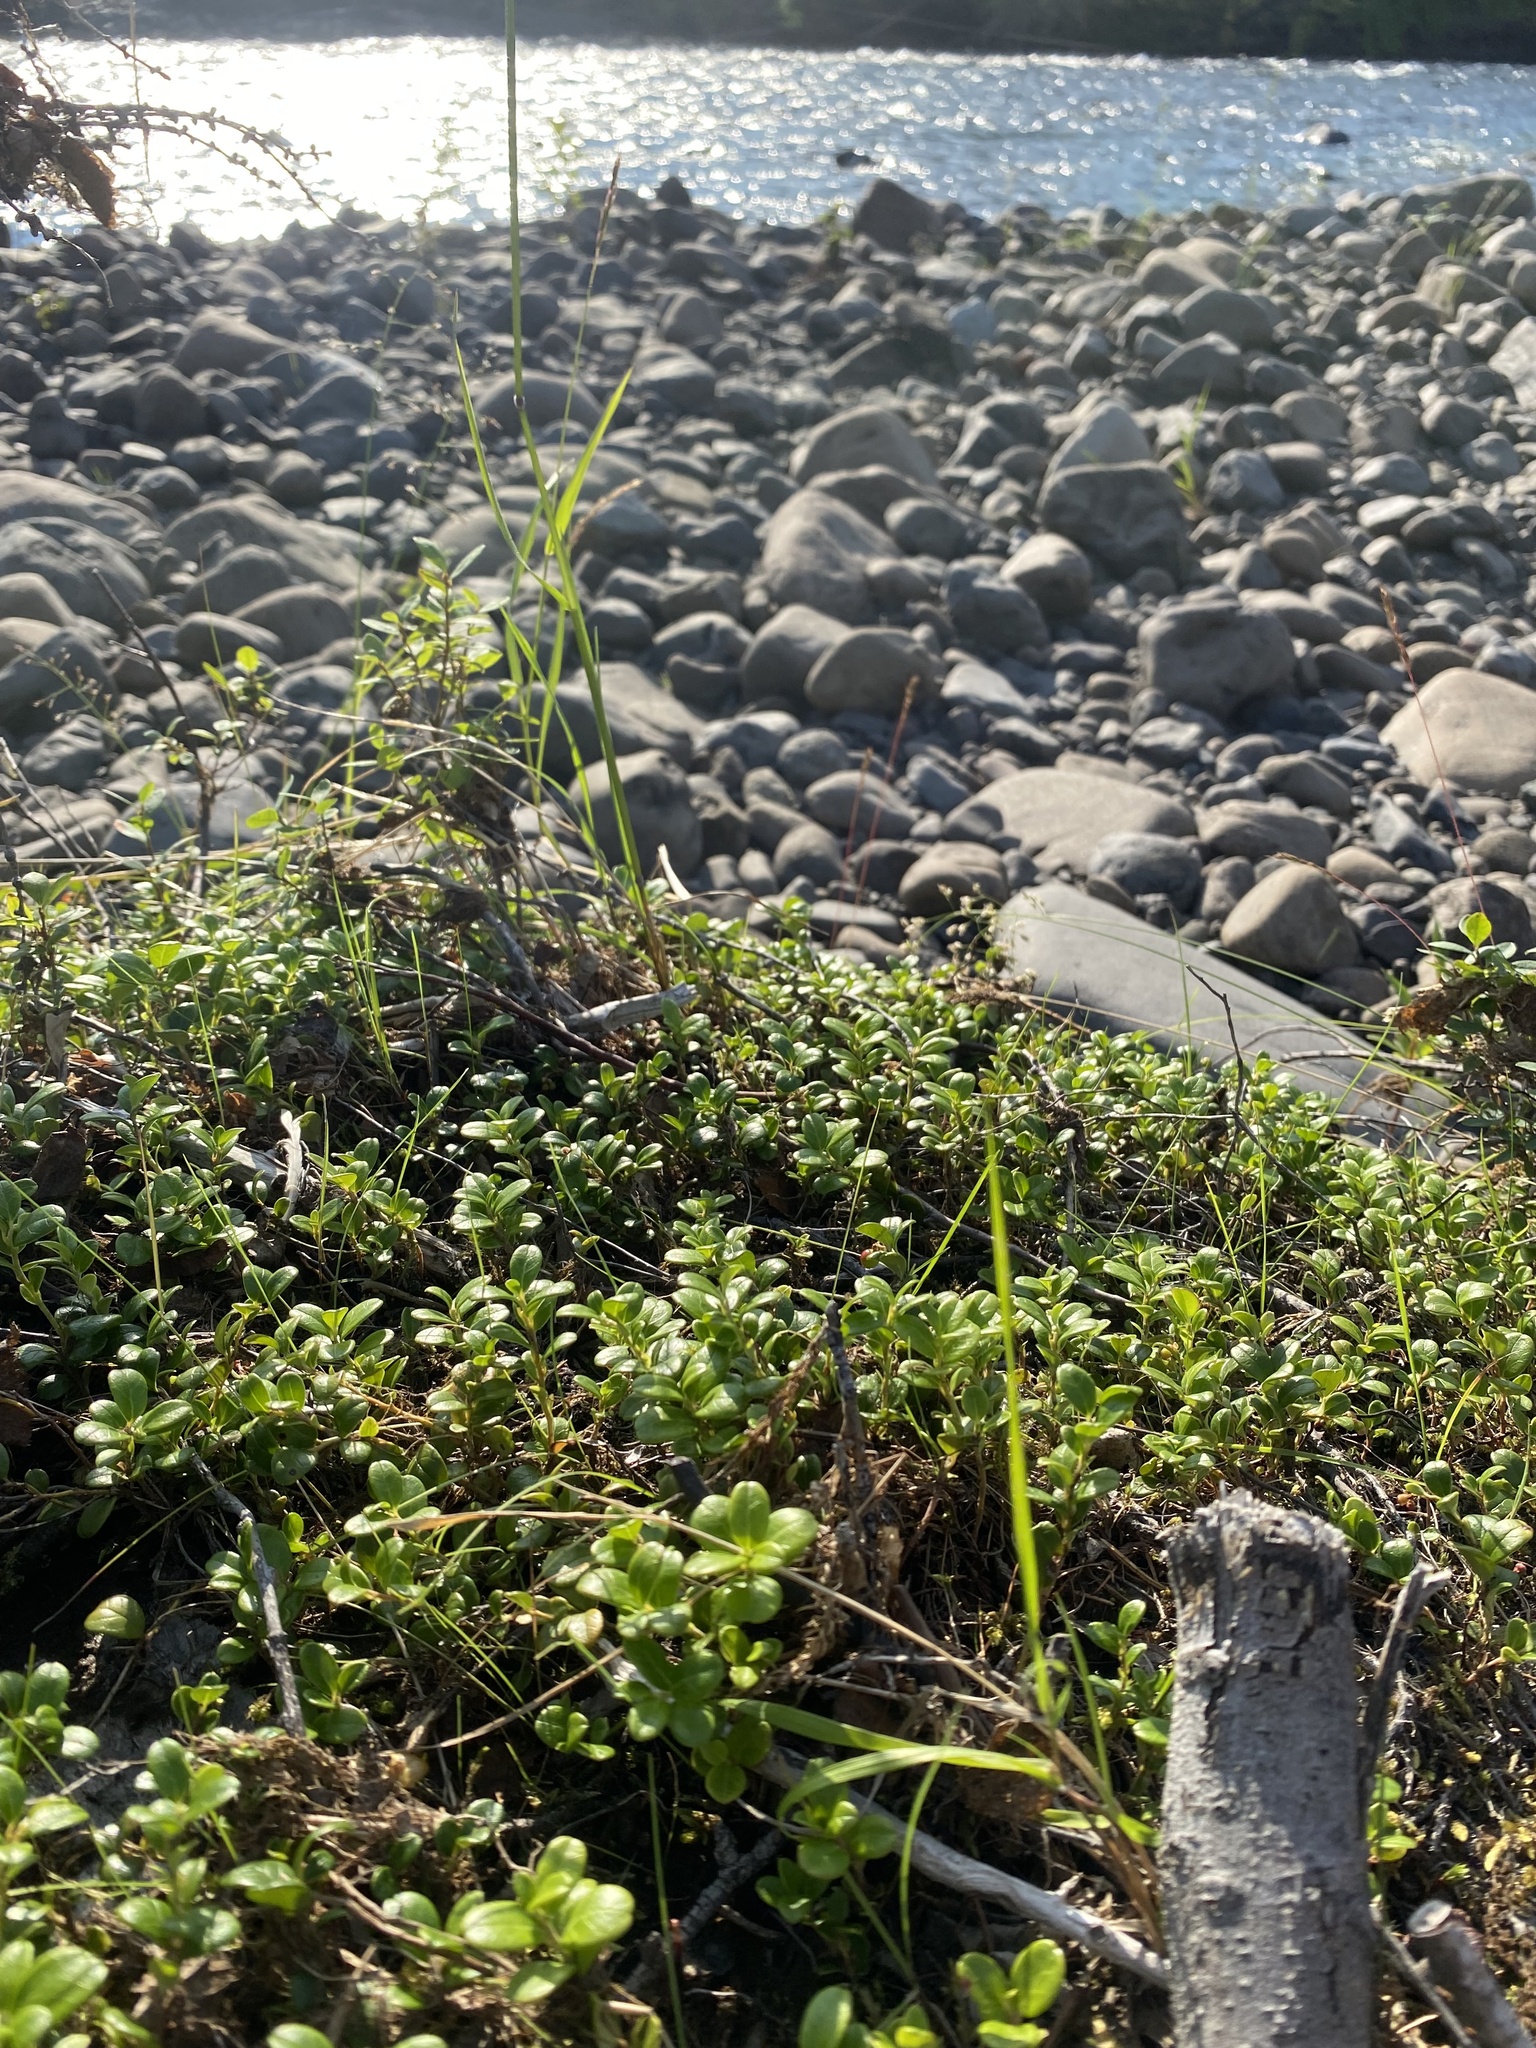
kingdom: Plantae
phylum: Tracheophyta
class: Magnoliopsida
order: Ericales
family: Ericaceae
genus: Vaccinium
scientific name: Vaccinium vitis-idaea
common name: Cowberry
